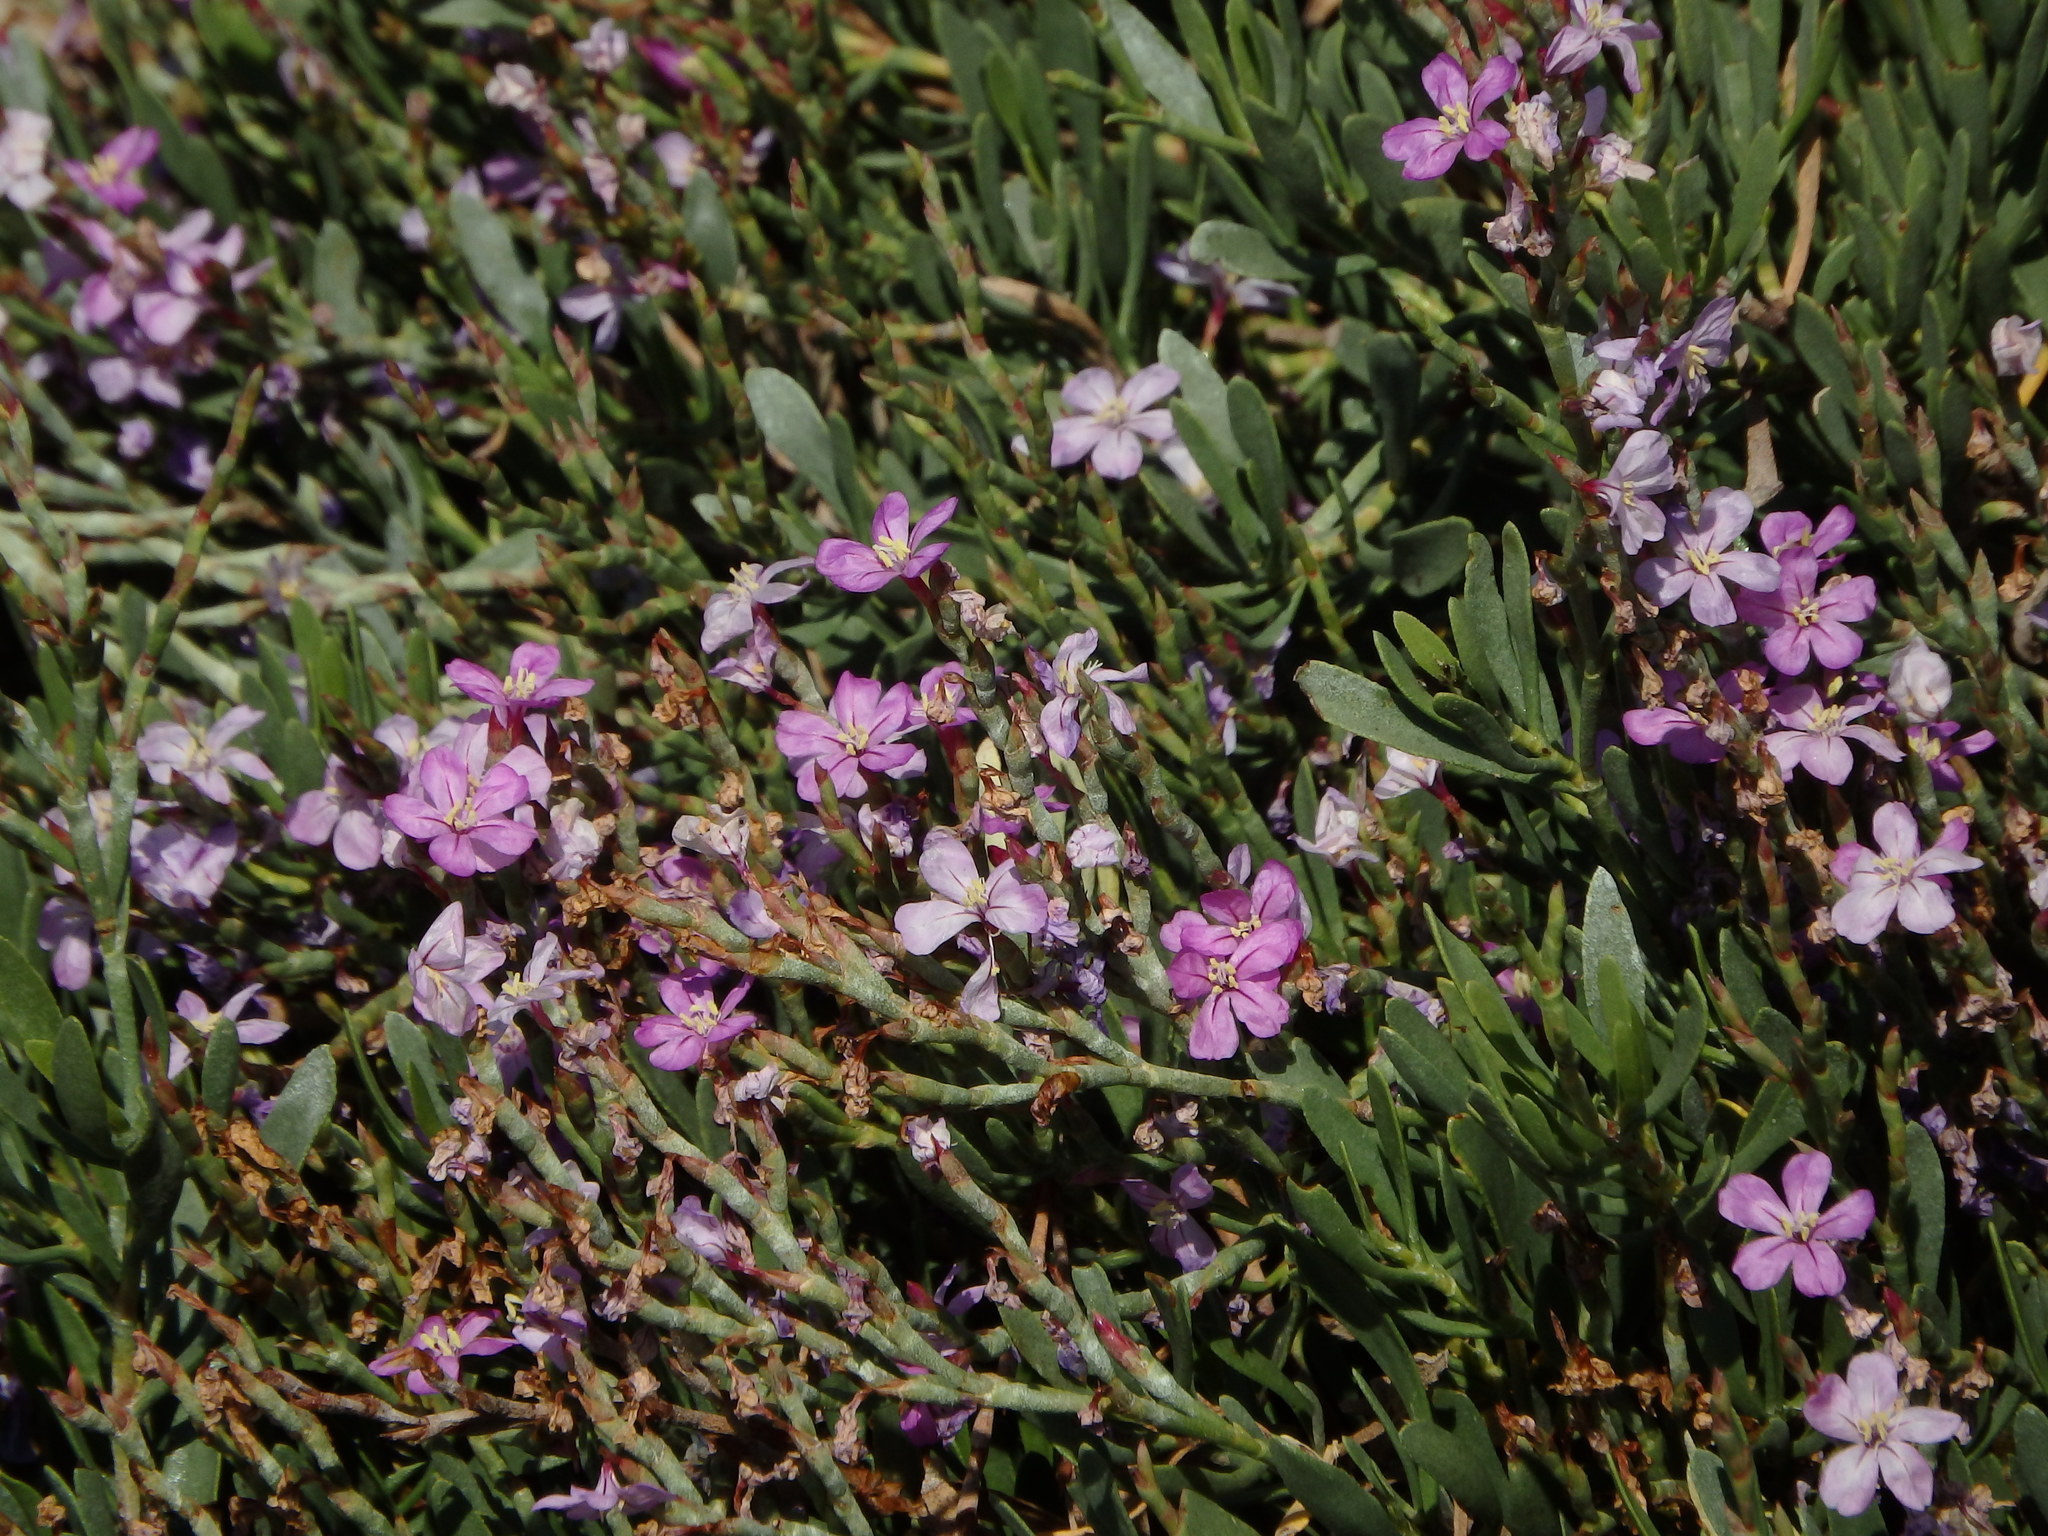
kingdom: Plantae
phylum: Tracheophyta
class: Magnoliopsida
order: Caryophyllales
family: Plumbaginaceae
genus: Limoniastrum
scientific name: Limoniastrum monopetalum
